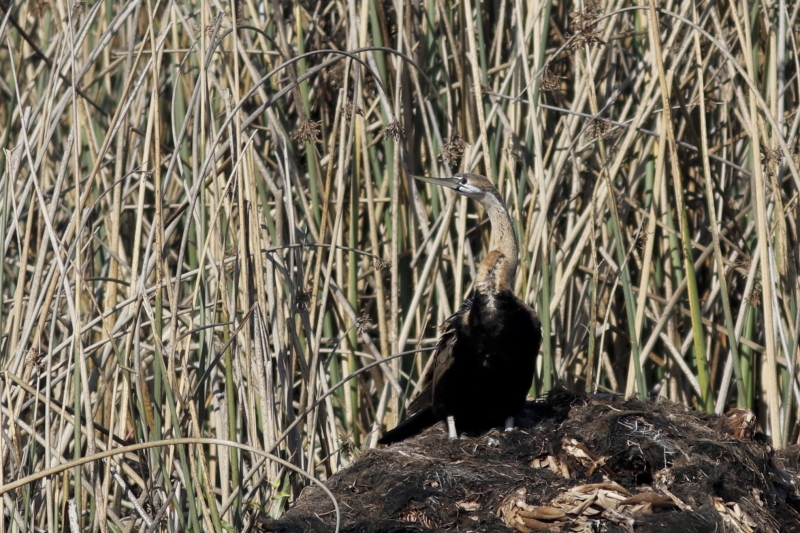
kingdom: Animalia
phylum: Chordata
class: Aves
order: Suliformes
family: Anhingidae
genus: Anhinga
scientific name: Anhinga rufa
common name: African darter
